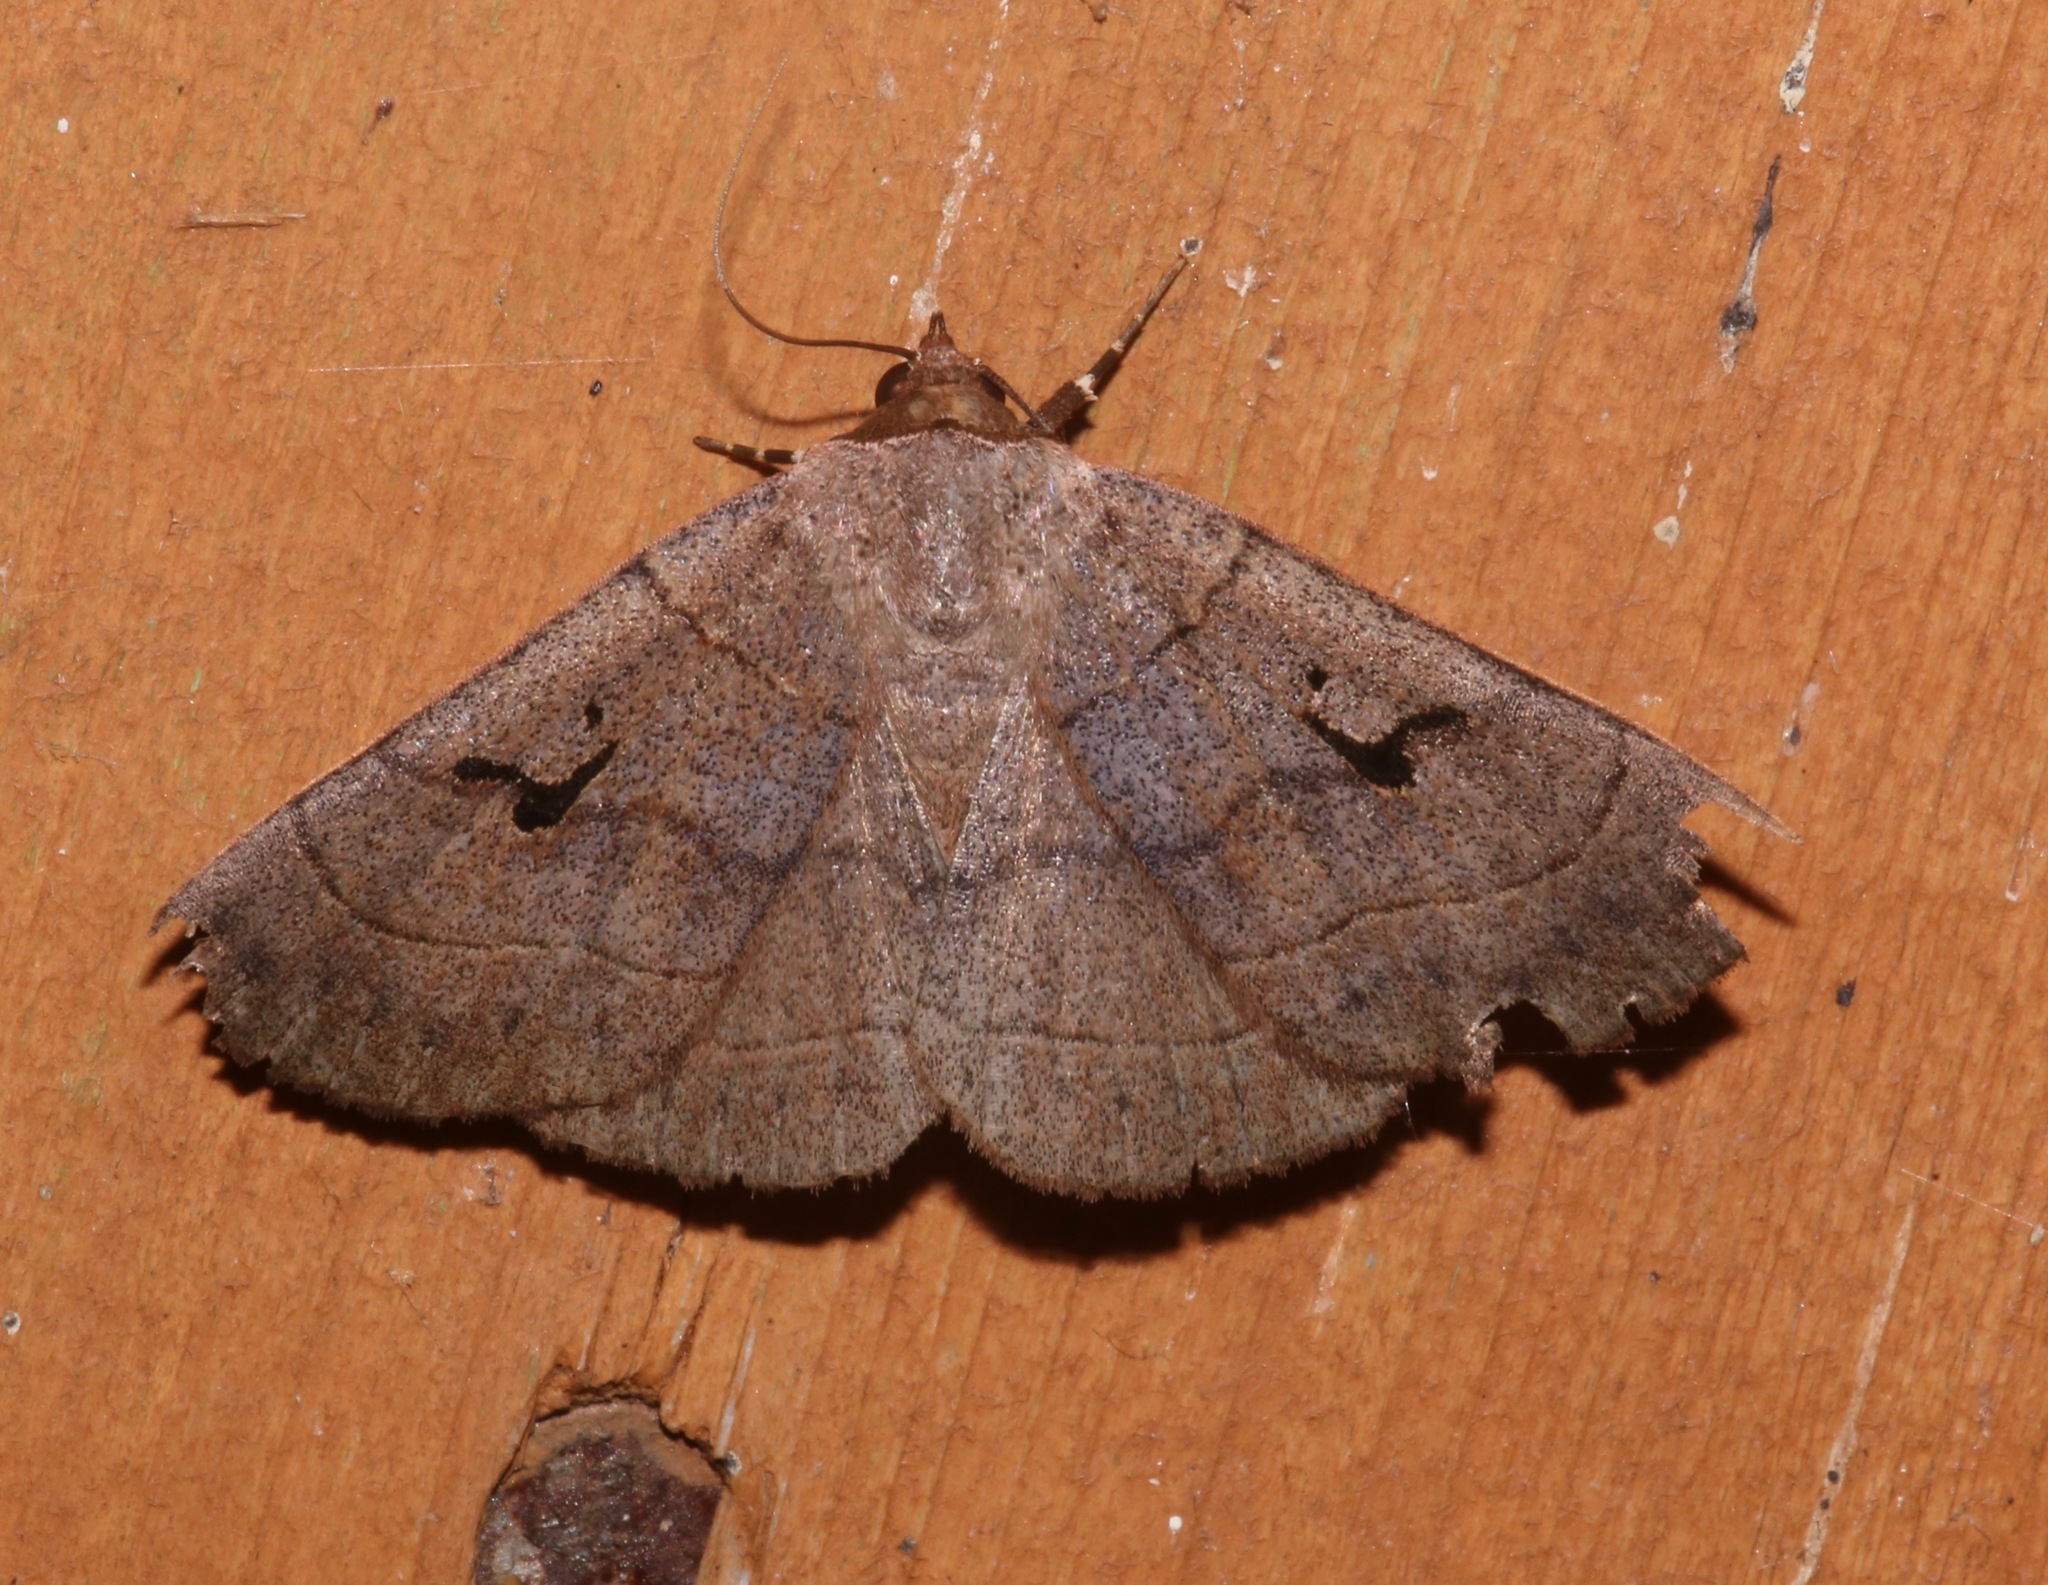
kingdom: Animalia
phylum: Arthropoda
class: Insecta
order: Lepidoptera
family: Erebidae
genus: Panopoda
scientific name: Panopoda carneicosta
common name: Brown panopoda moth
